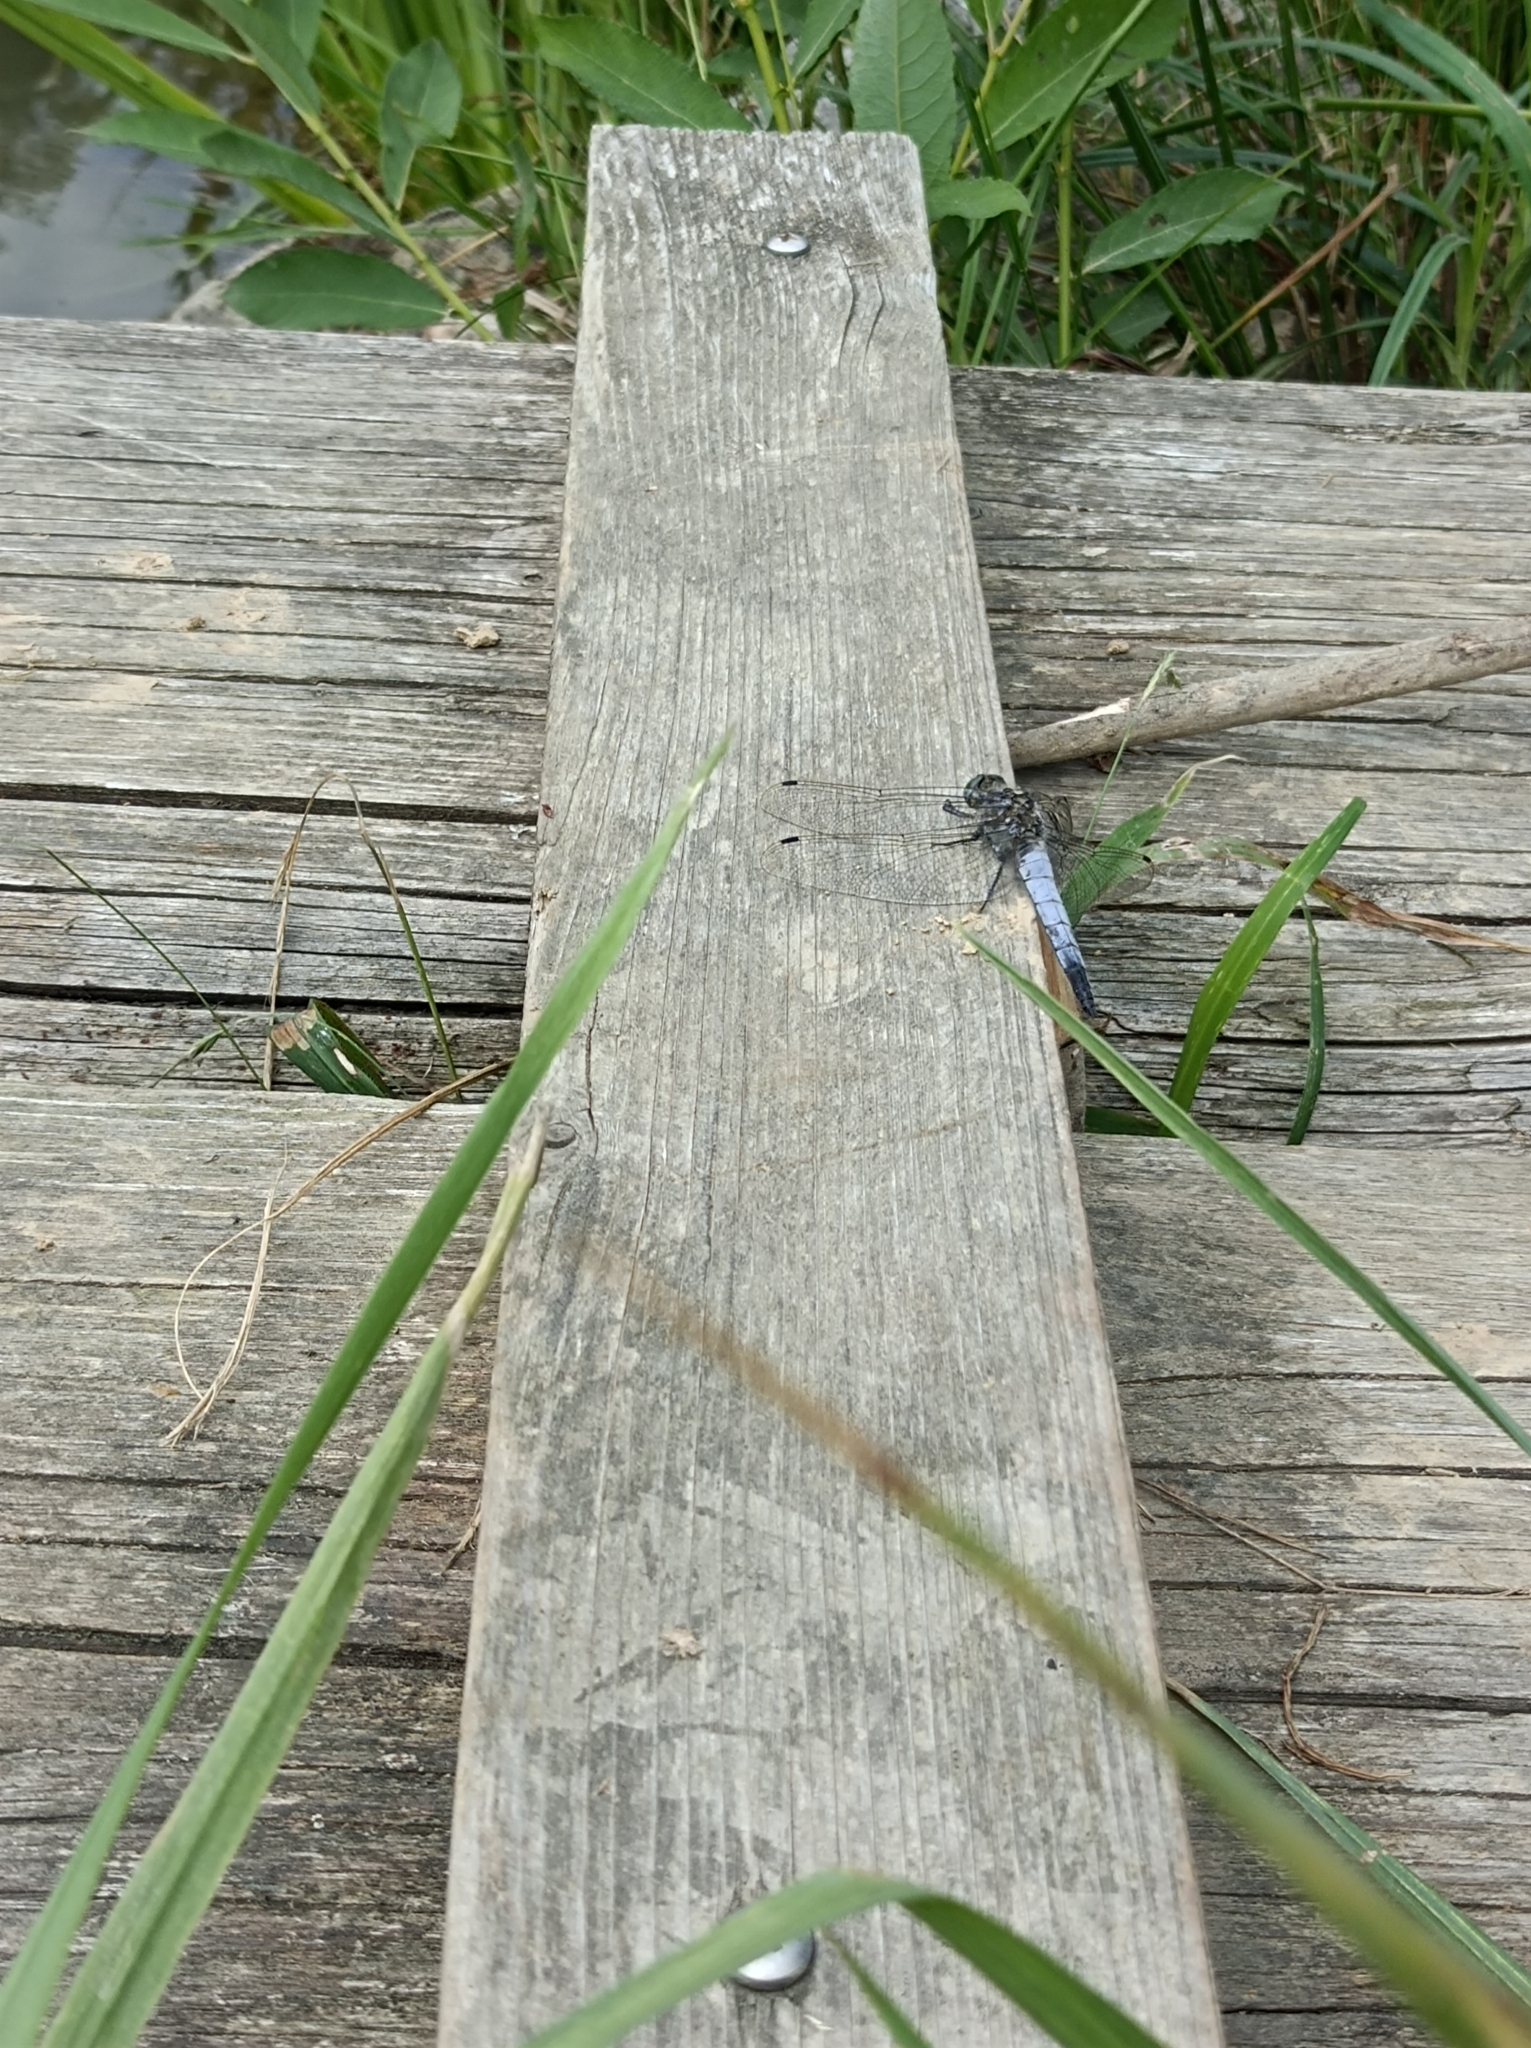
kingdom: Animalia
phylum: Arthropoda
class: Insecta
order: Odonata
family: Libellulidae
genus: Orthetrum
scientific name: Orthetrum cancellatum
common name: Black-tailed skimmer
